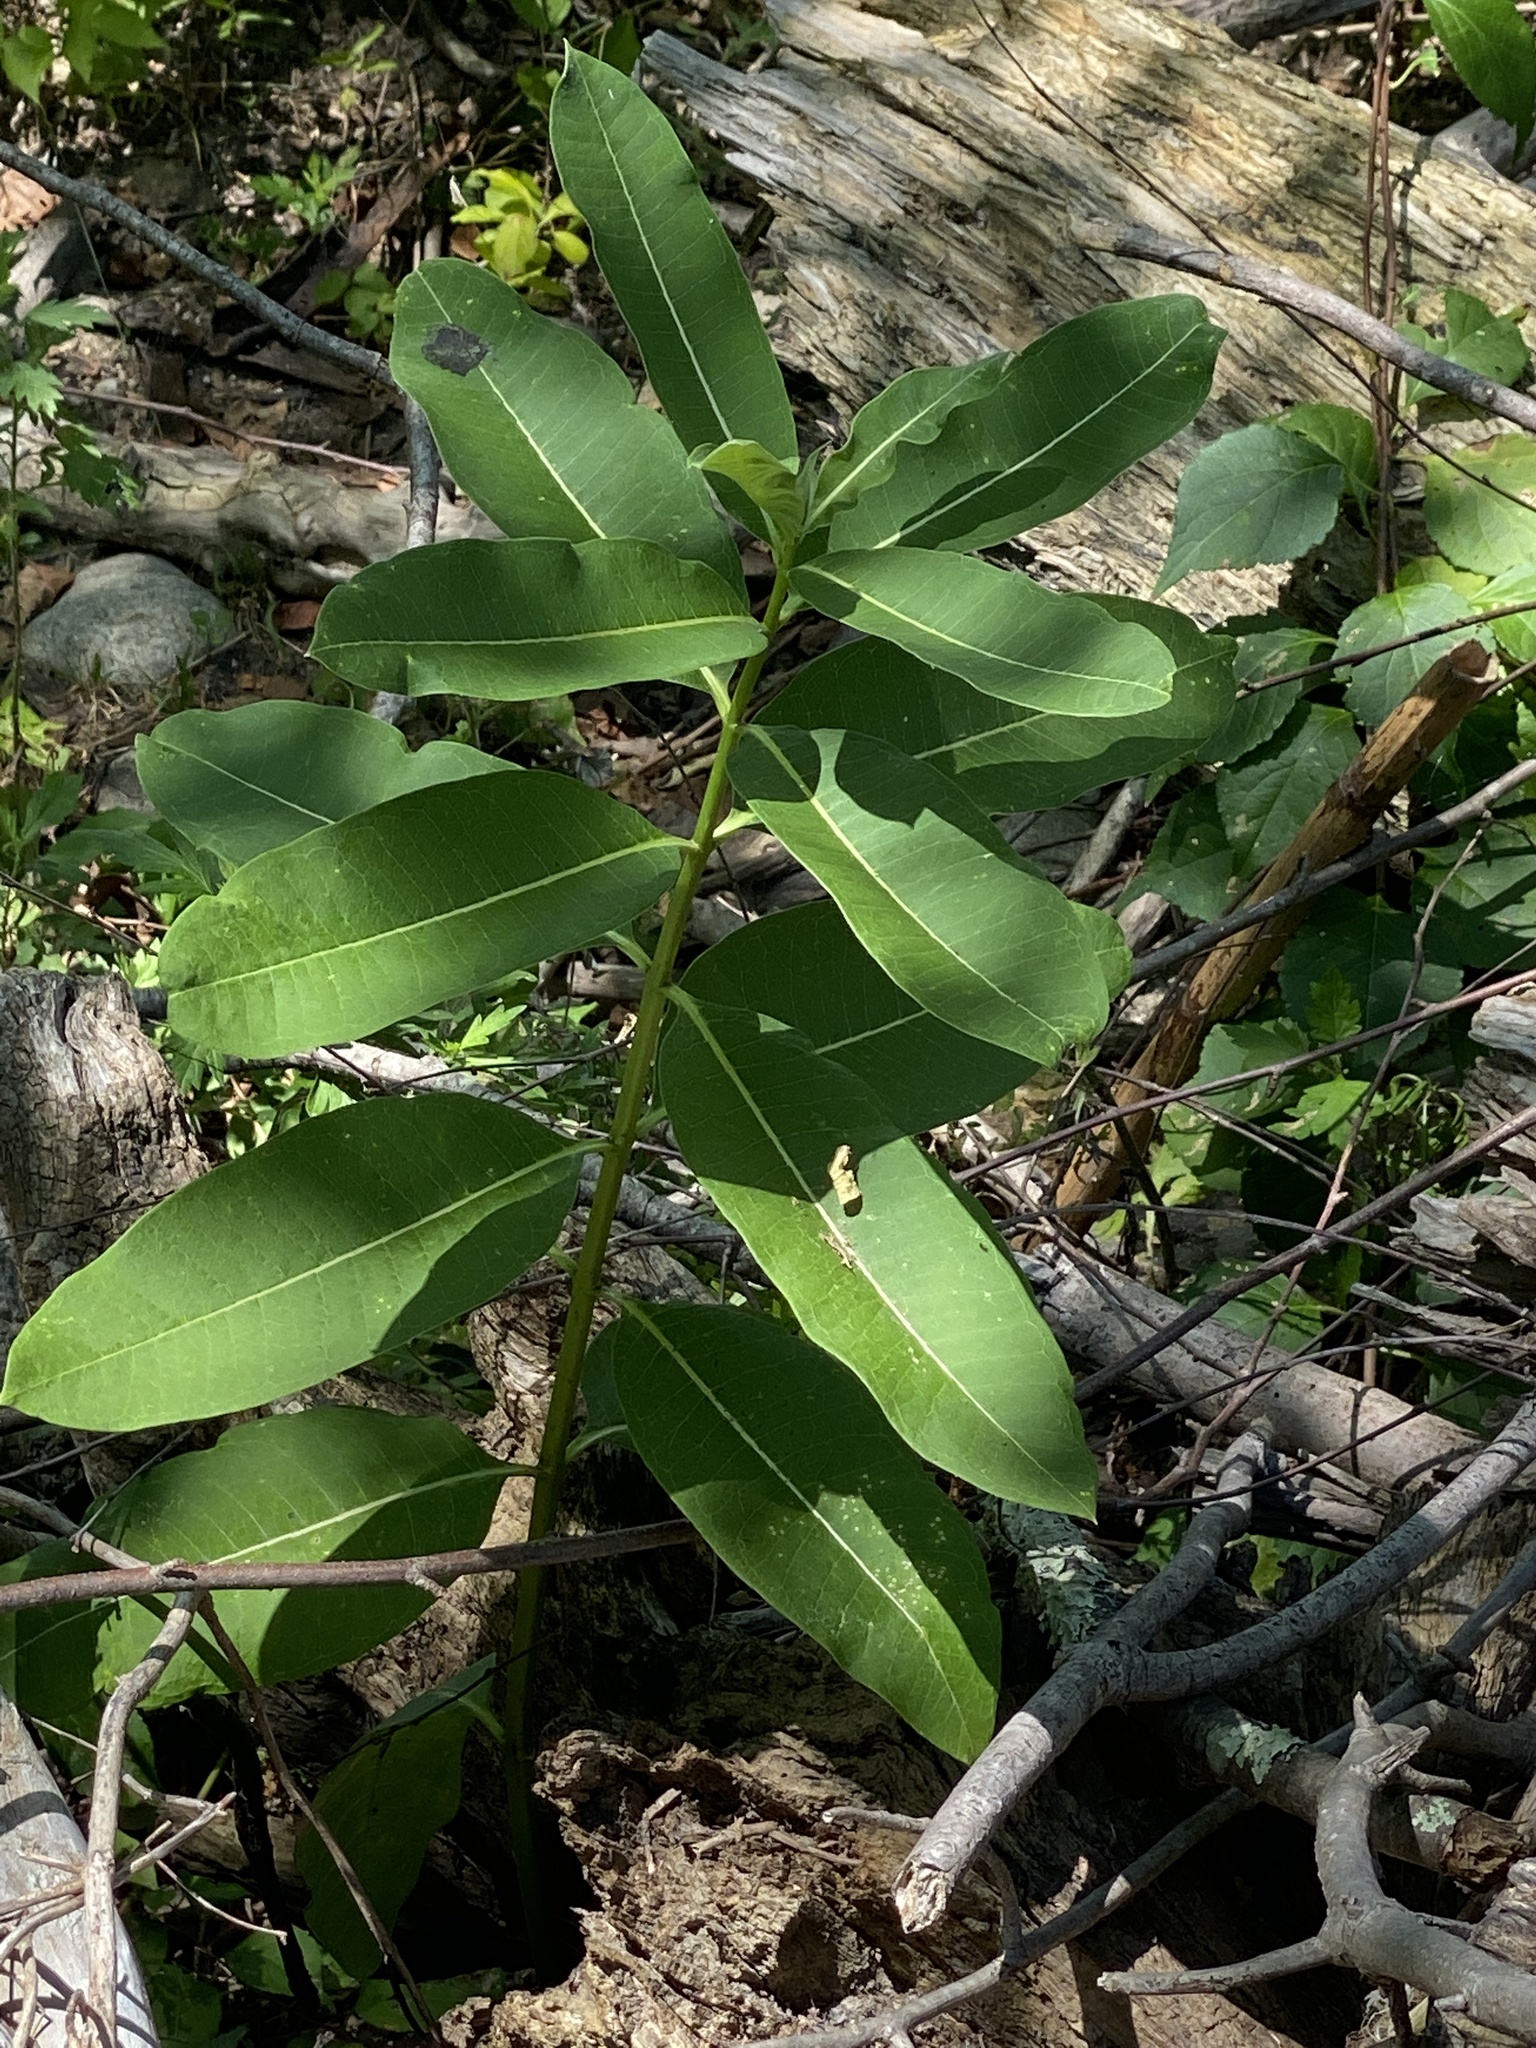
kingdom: Plantae
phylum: Tracheophyta
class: Magnoliopsida
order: Gentianales
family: Apocynaceae
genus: Asclepias
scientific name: Asclepias syriaca
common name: Common milkweed
